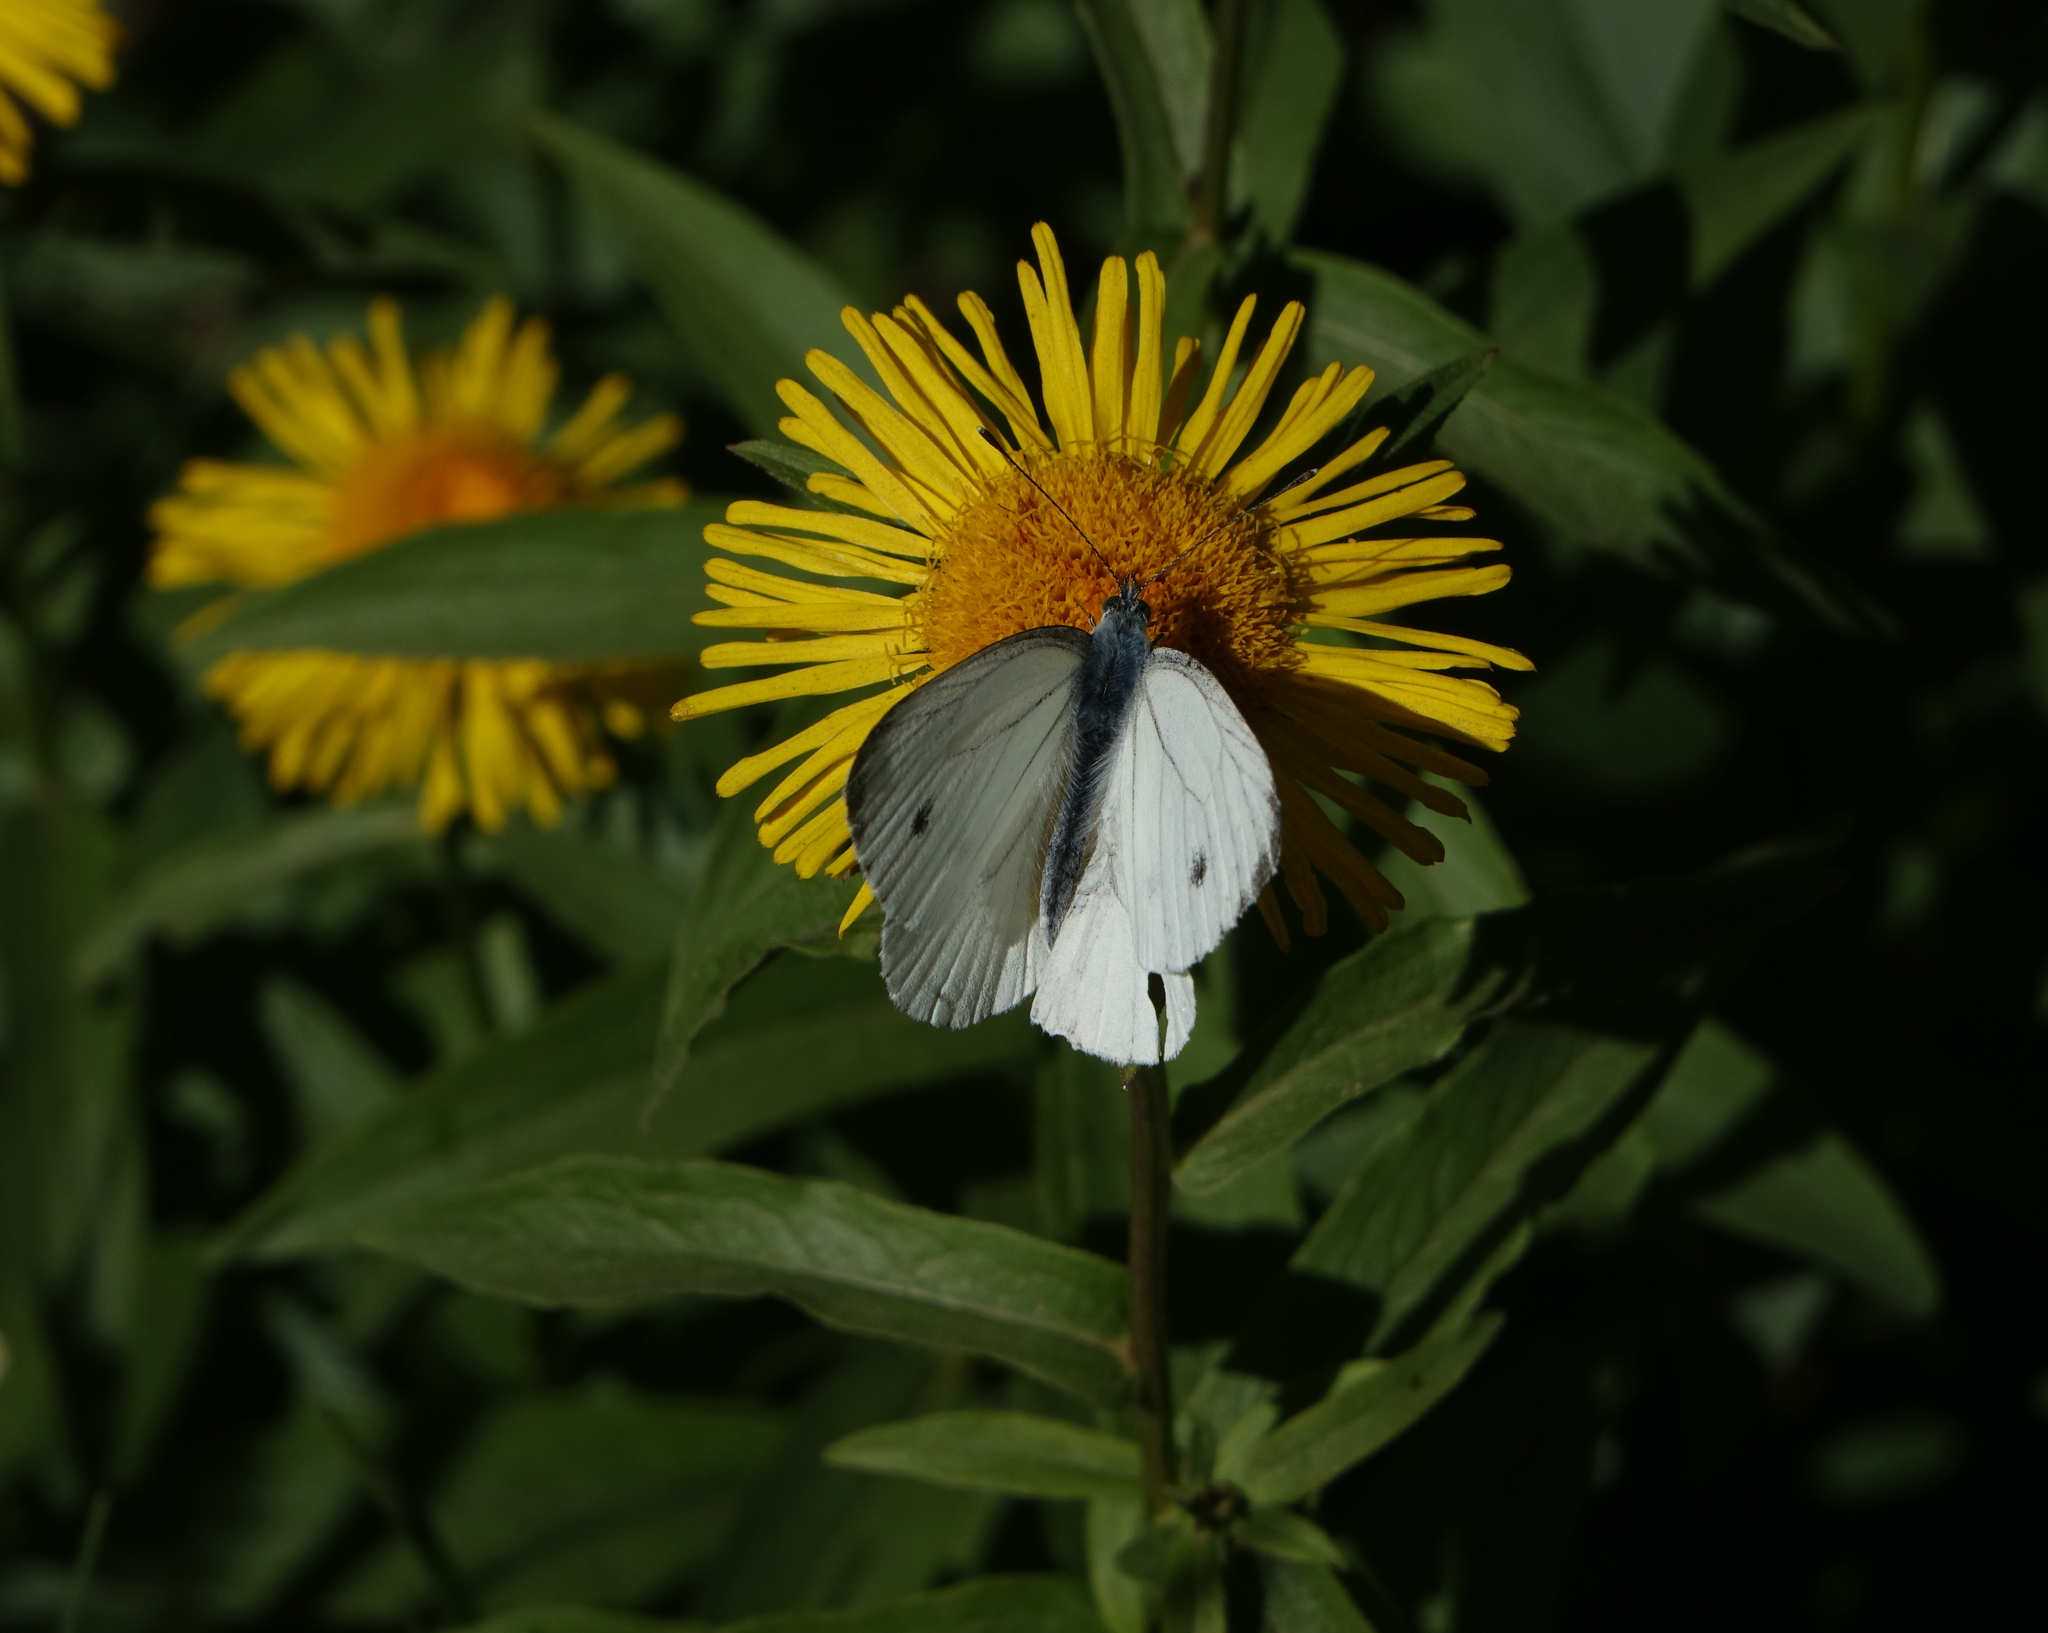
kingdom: Animalia
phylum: Arthropoda
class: Insecta
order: Lepidoptera
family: Pieridae
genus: Pieris
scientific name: Pieris napi
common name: Green-veined white
